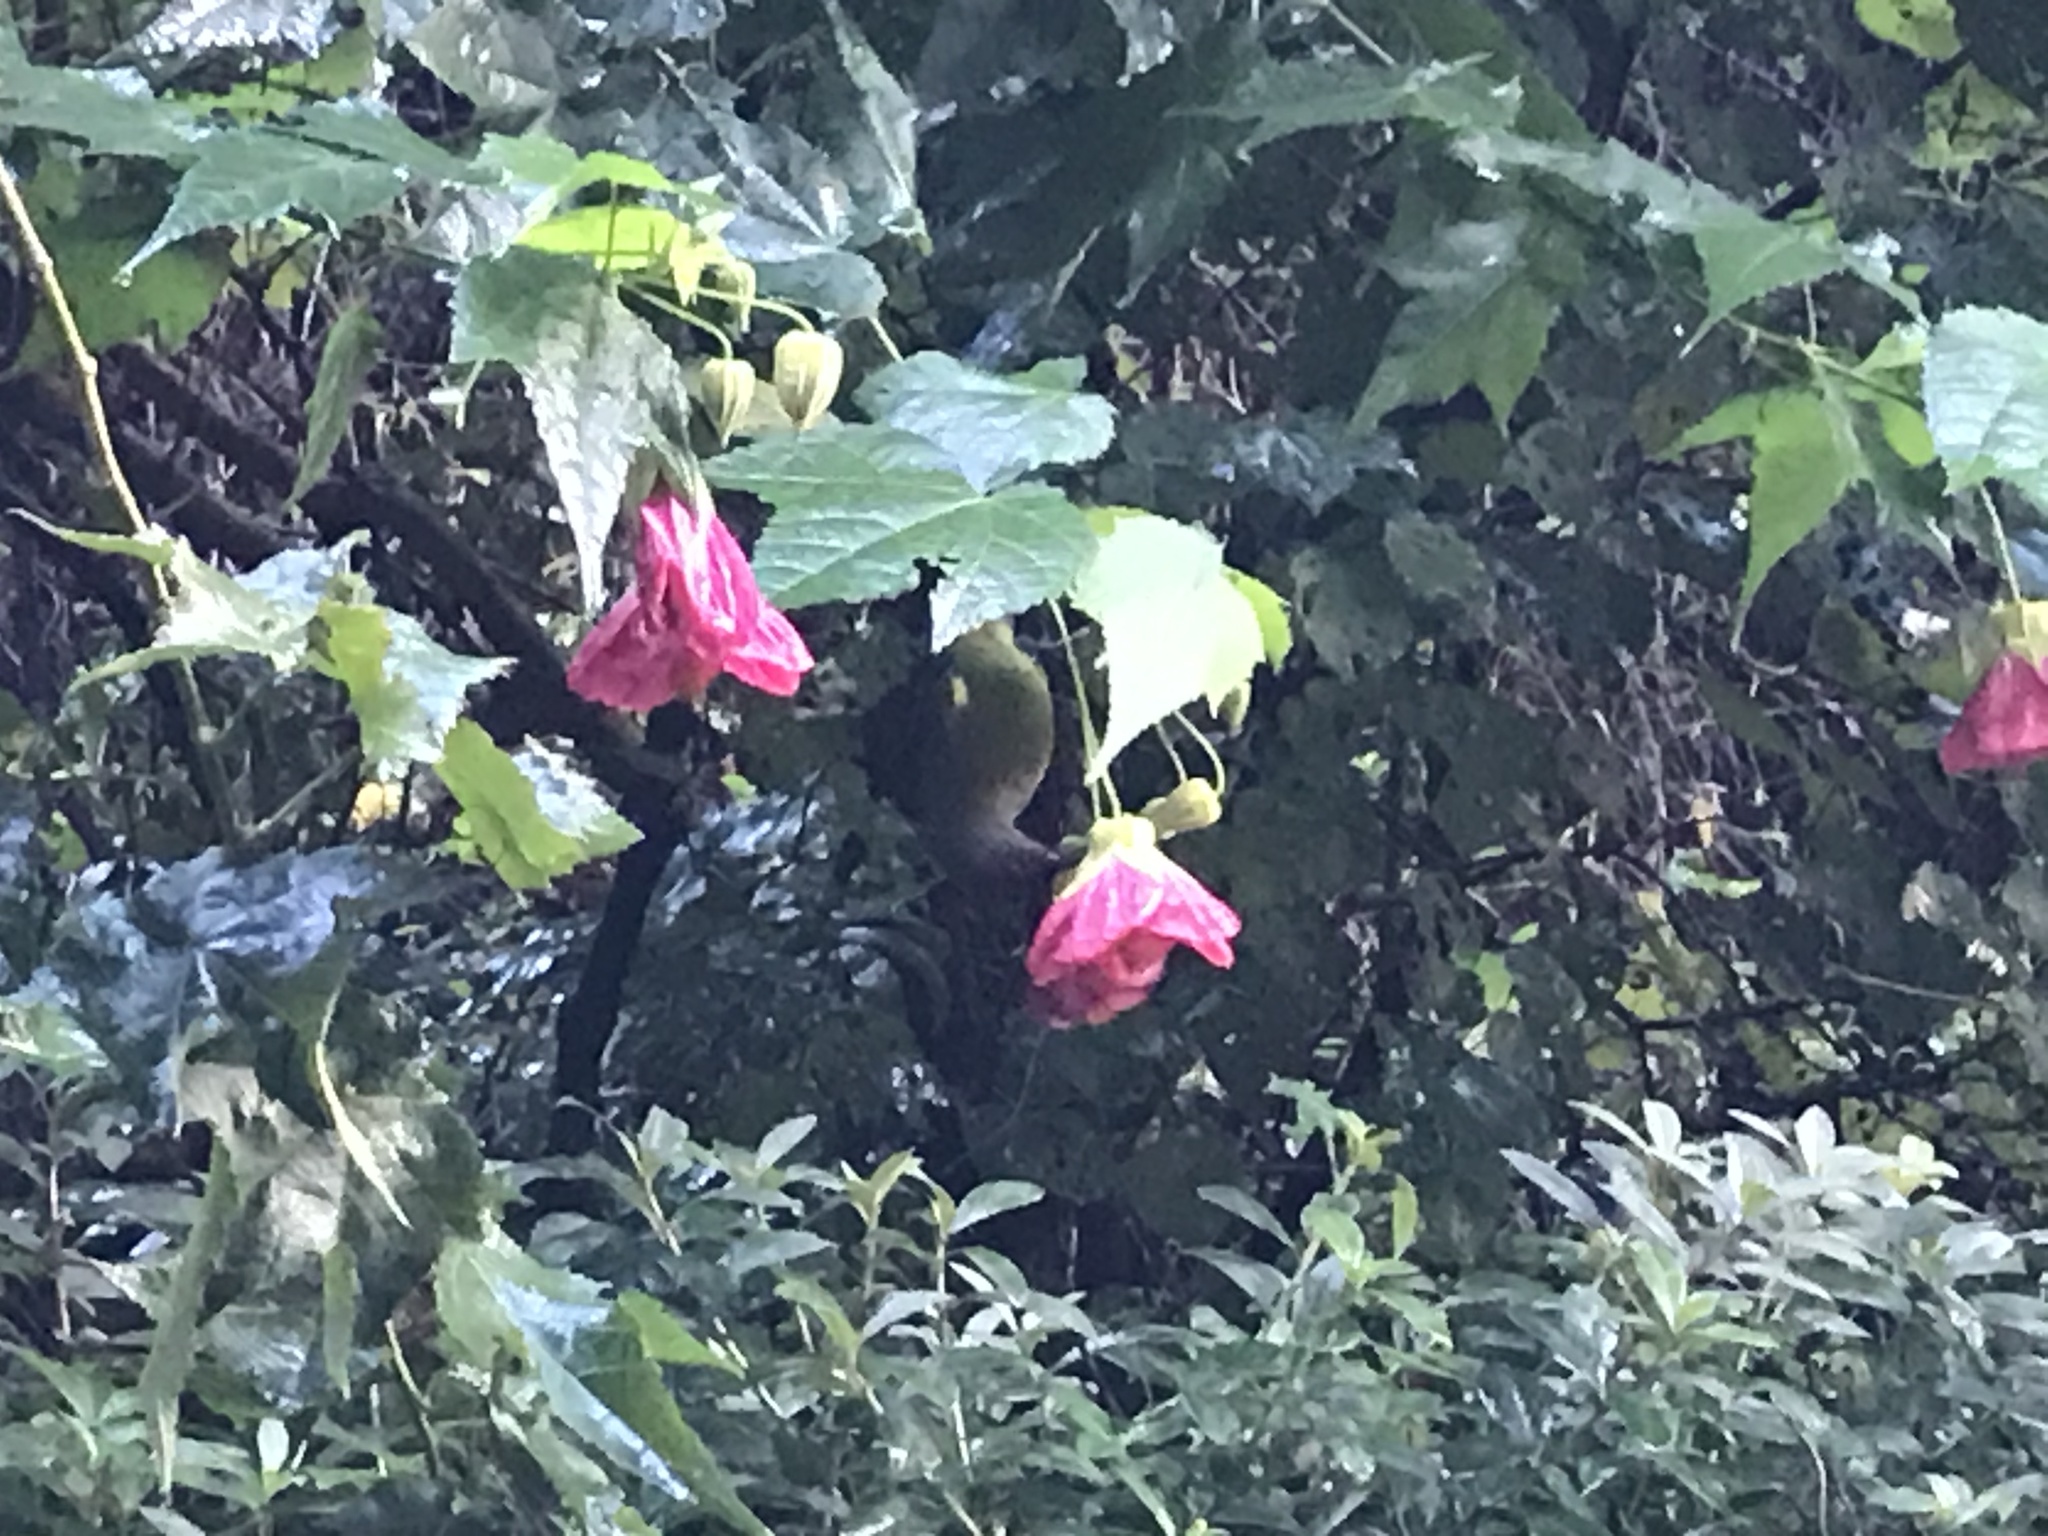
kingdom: Animalia
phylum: Chordata
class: Aves
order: Passeriformes
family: Meliphagidae
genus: Anthornis
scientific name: Anthornis melanura
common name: New zealand bellbird
